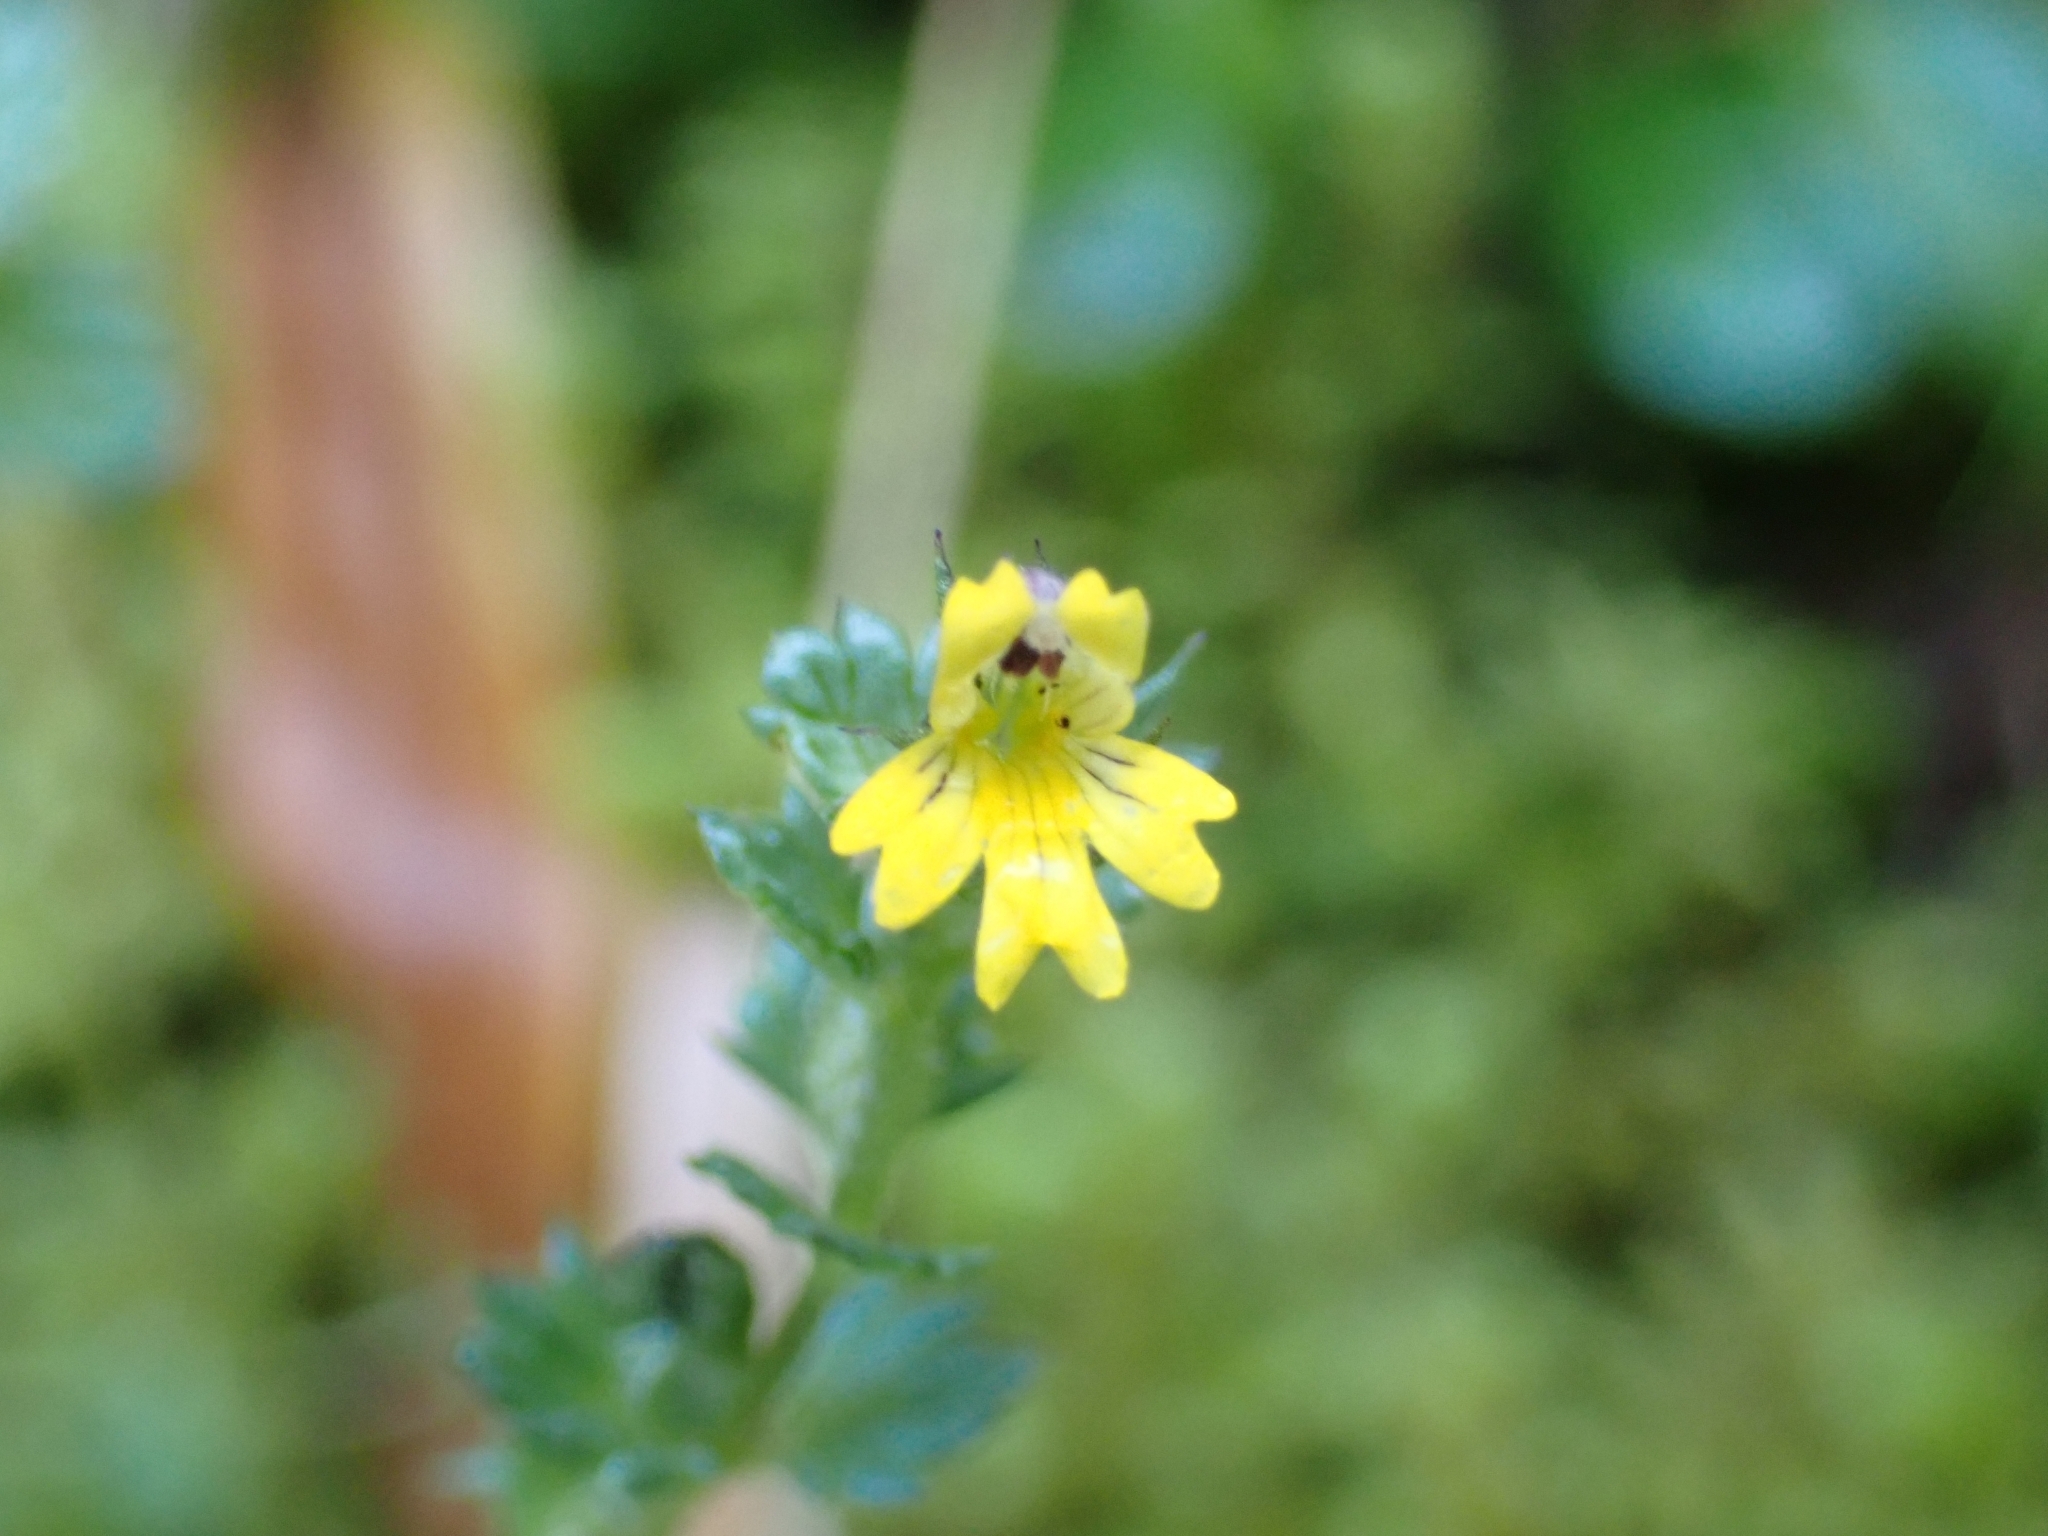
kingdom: Plantae
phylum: Tracheophyta
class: Magnoliopsida
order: Lamiales
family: Orobanchaceae
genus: Euphrasia
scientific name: Euphrasia minima
